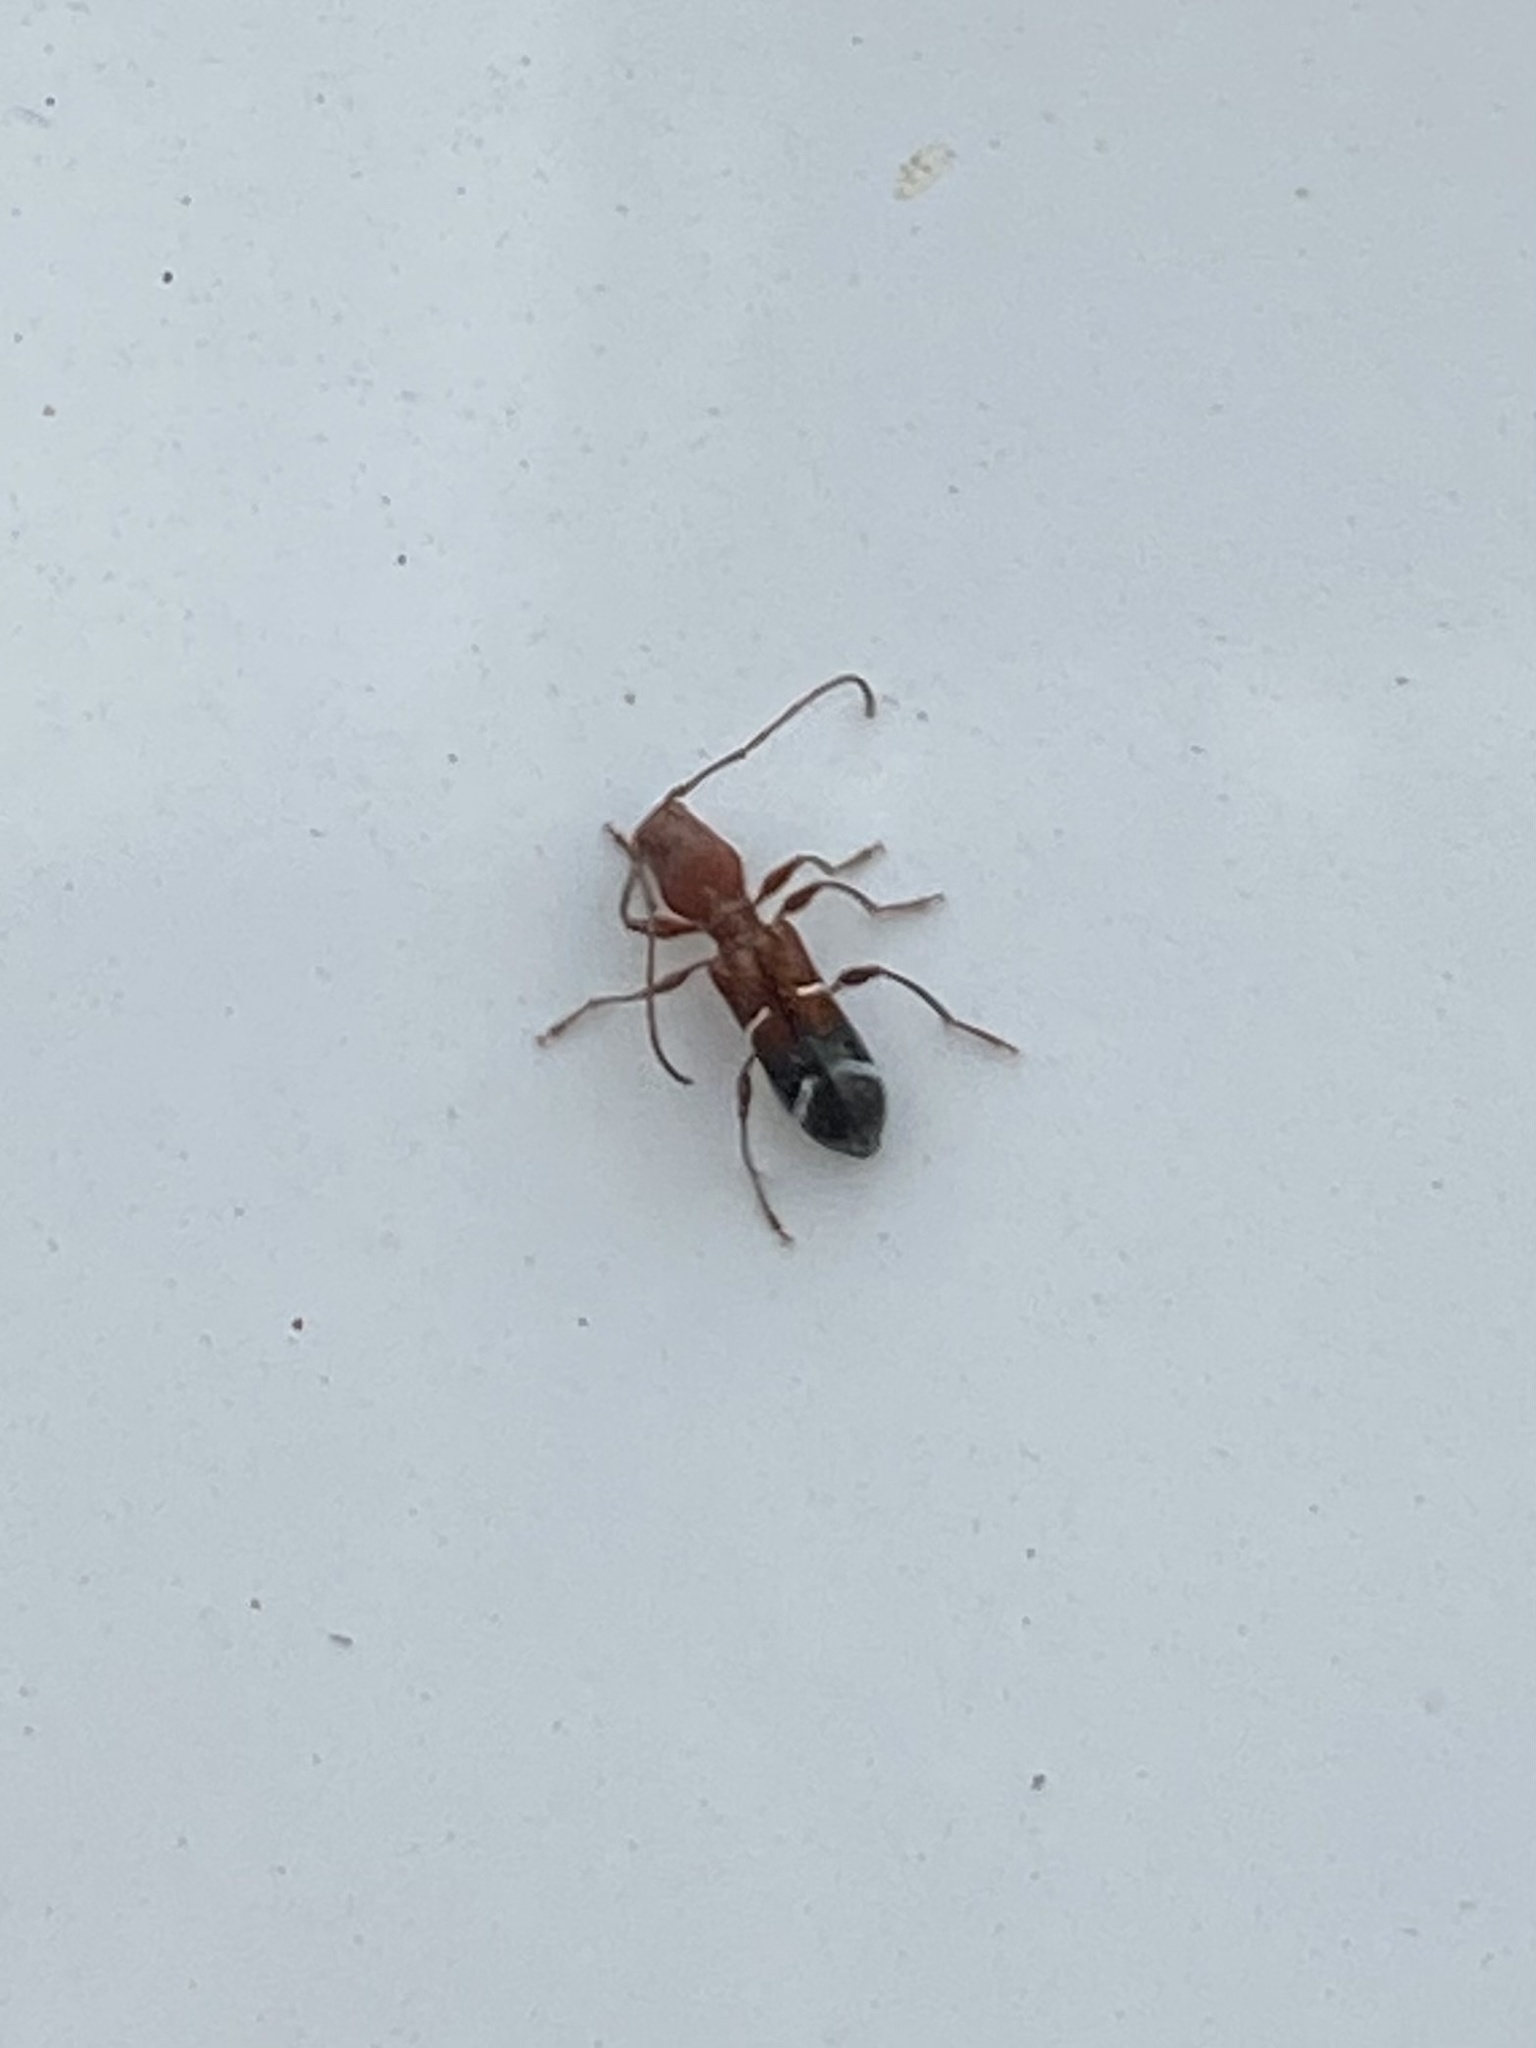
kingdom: Animalia
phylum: Arthropoda
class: Insecta
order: Coleoptera
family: Cerambycidae
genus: Euderces
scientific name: Euderces pini
